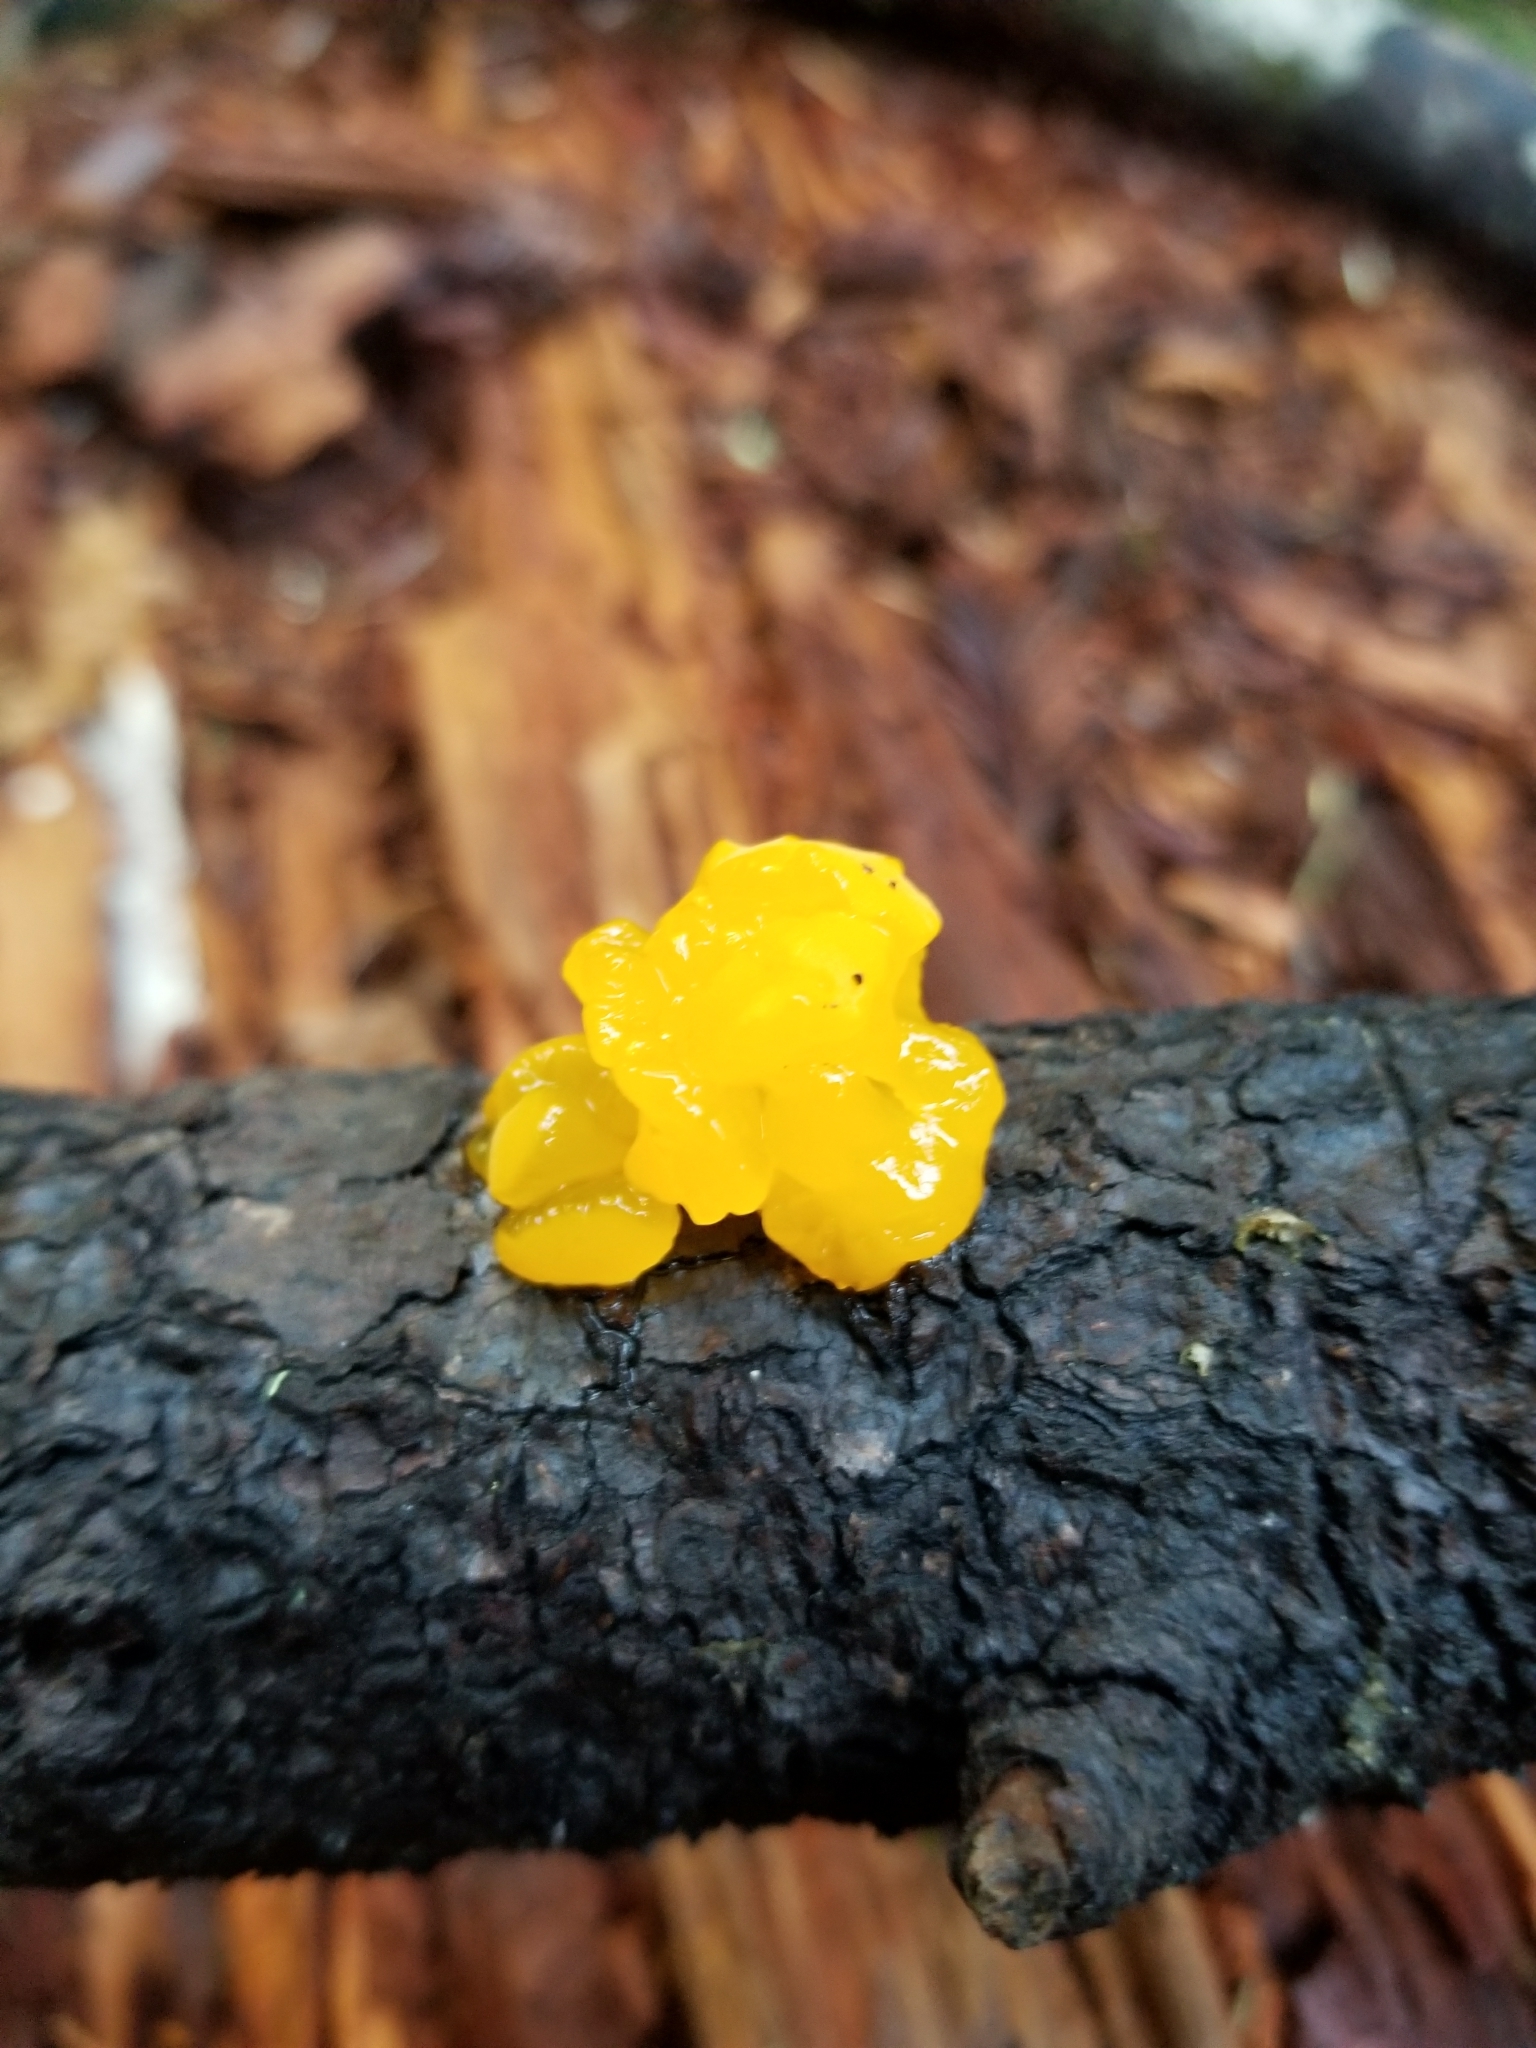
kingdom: Fungi
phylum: Basidiomycota
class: Dacrymycetes
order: Dacrymycetales
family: Dacrymycetaceae
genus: Dacrymyces
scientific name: Dacrymyces chrysospermus
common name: Orange jelly spot
